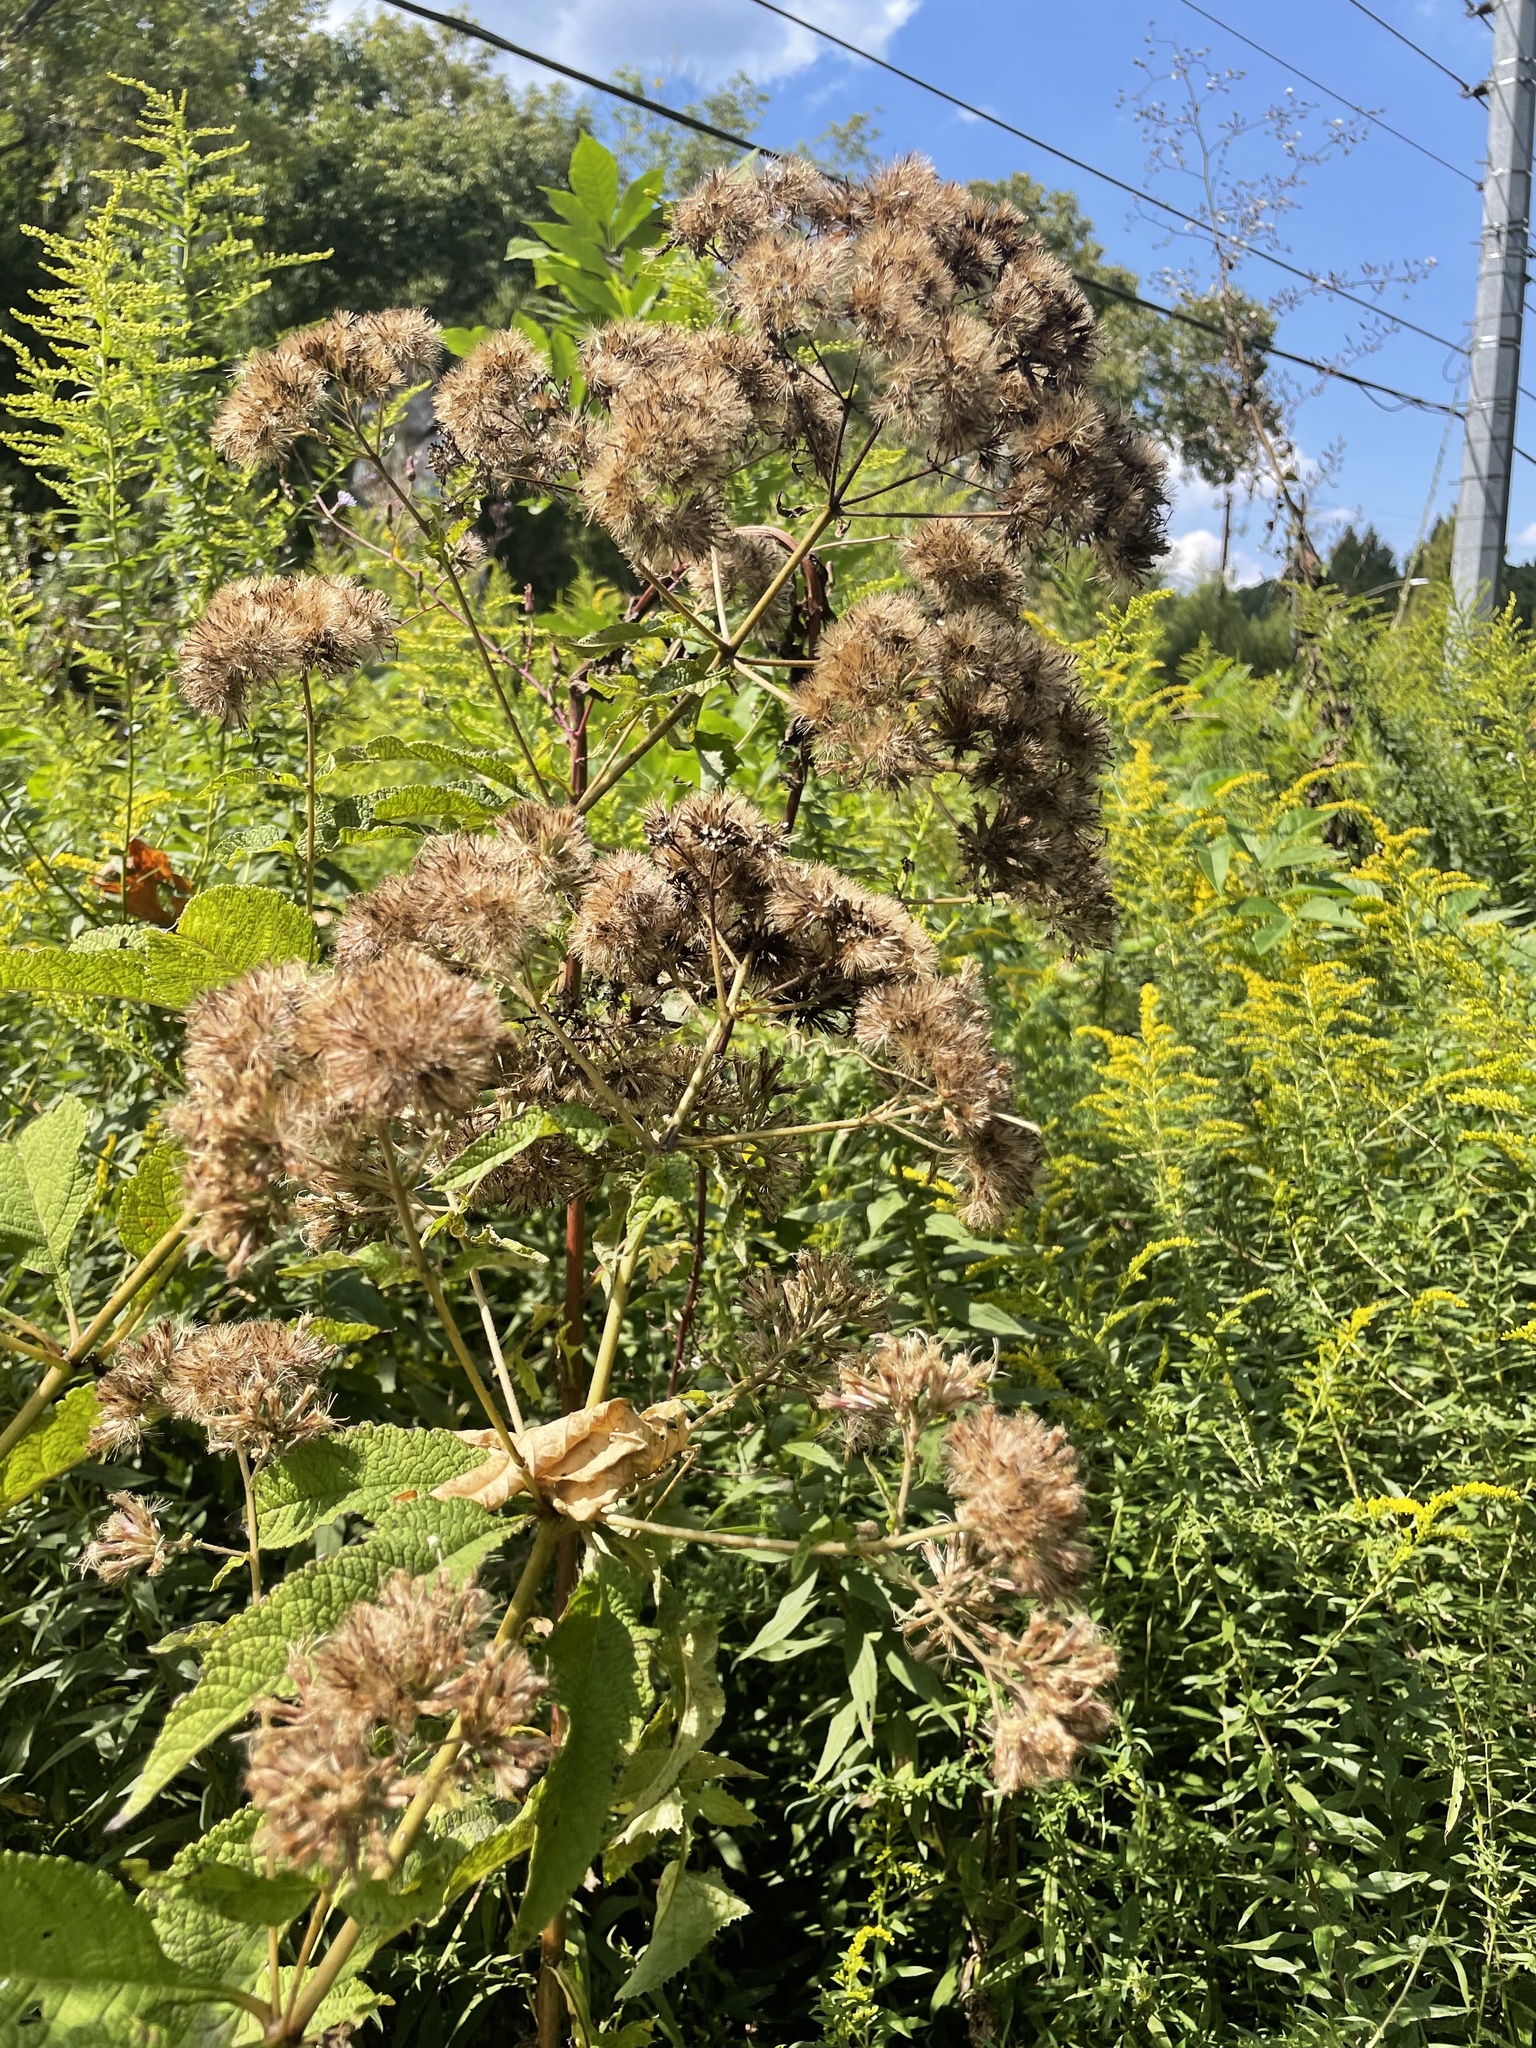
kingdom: Plantae
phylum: Tracheophyta
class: Magnoliopsida
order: Asterales
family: Asteraceae
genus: Eutrochium
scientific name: Eutrochium fistulosum
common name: Trumpetweed
